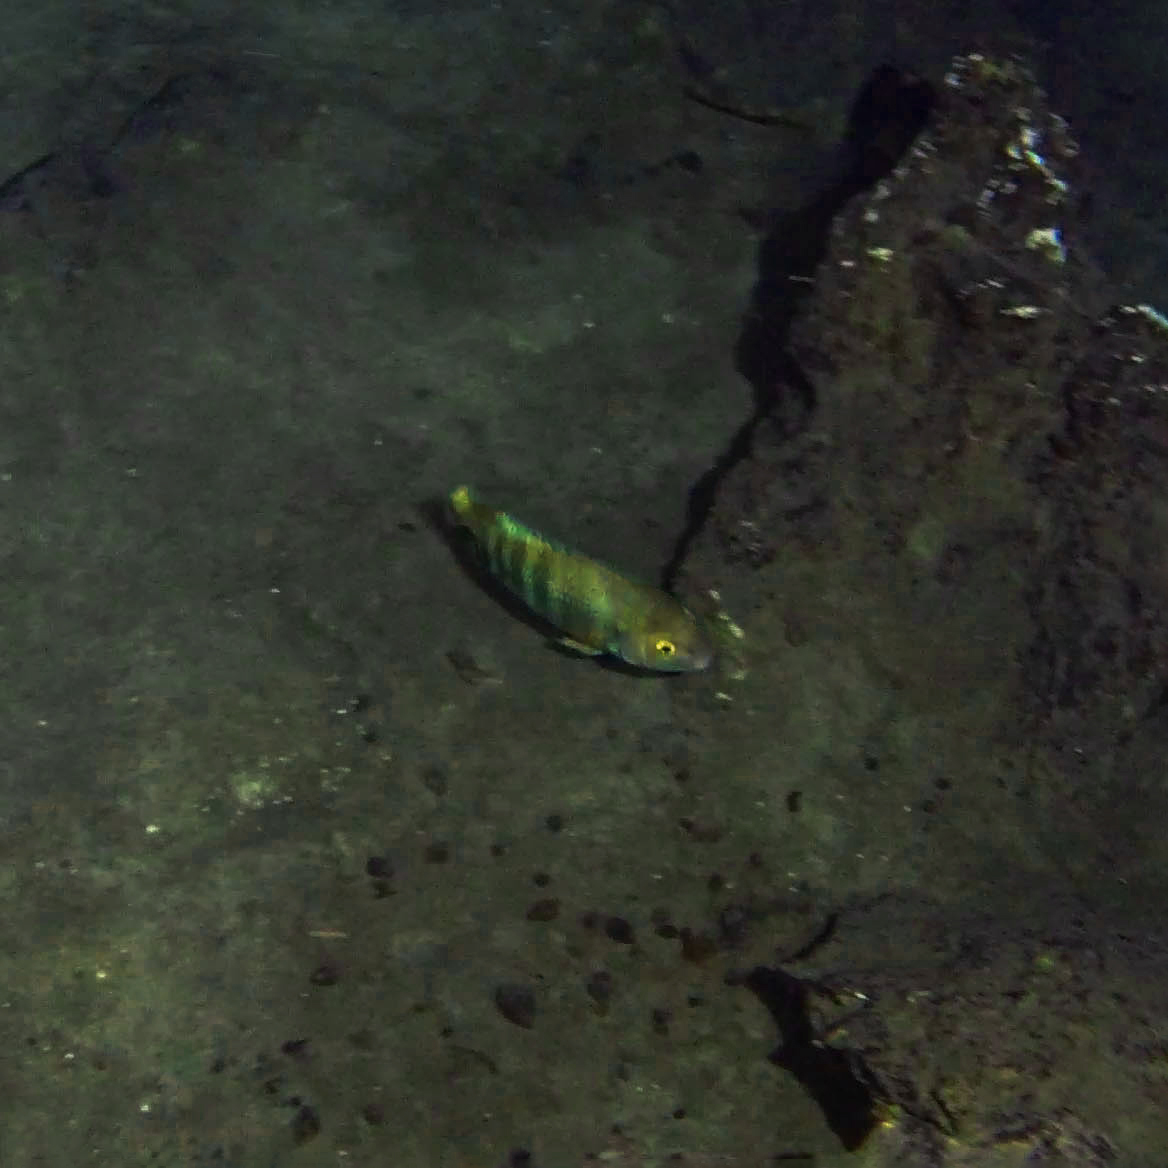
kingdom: Animalia
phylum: Chordata
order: Perciformes
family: Cichlidae
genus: Mayaheros
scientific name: Mayaheros urophthalmus
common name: Mayan cichlid
